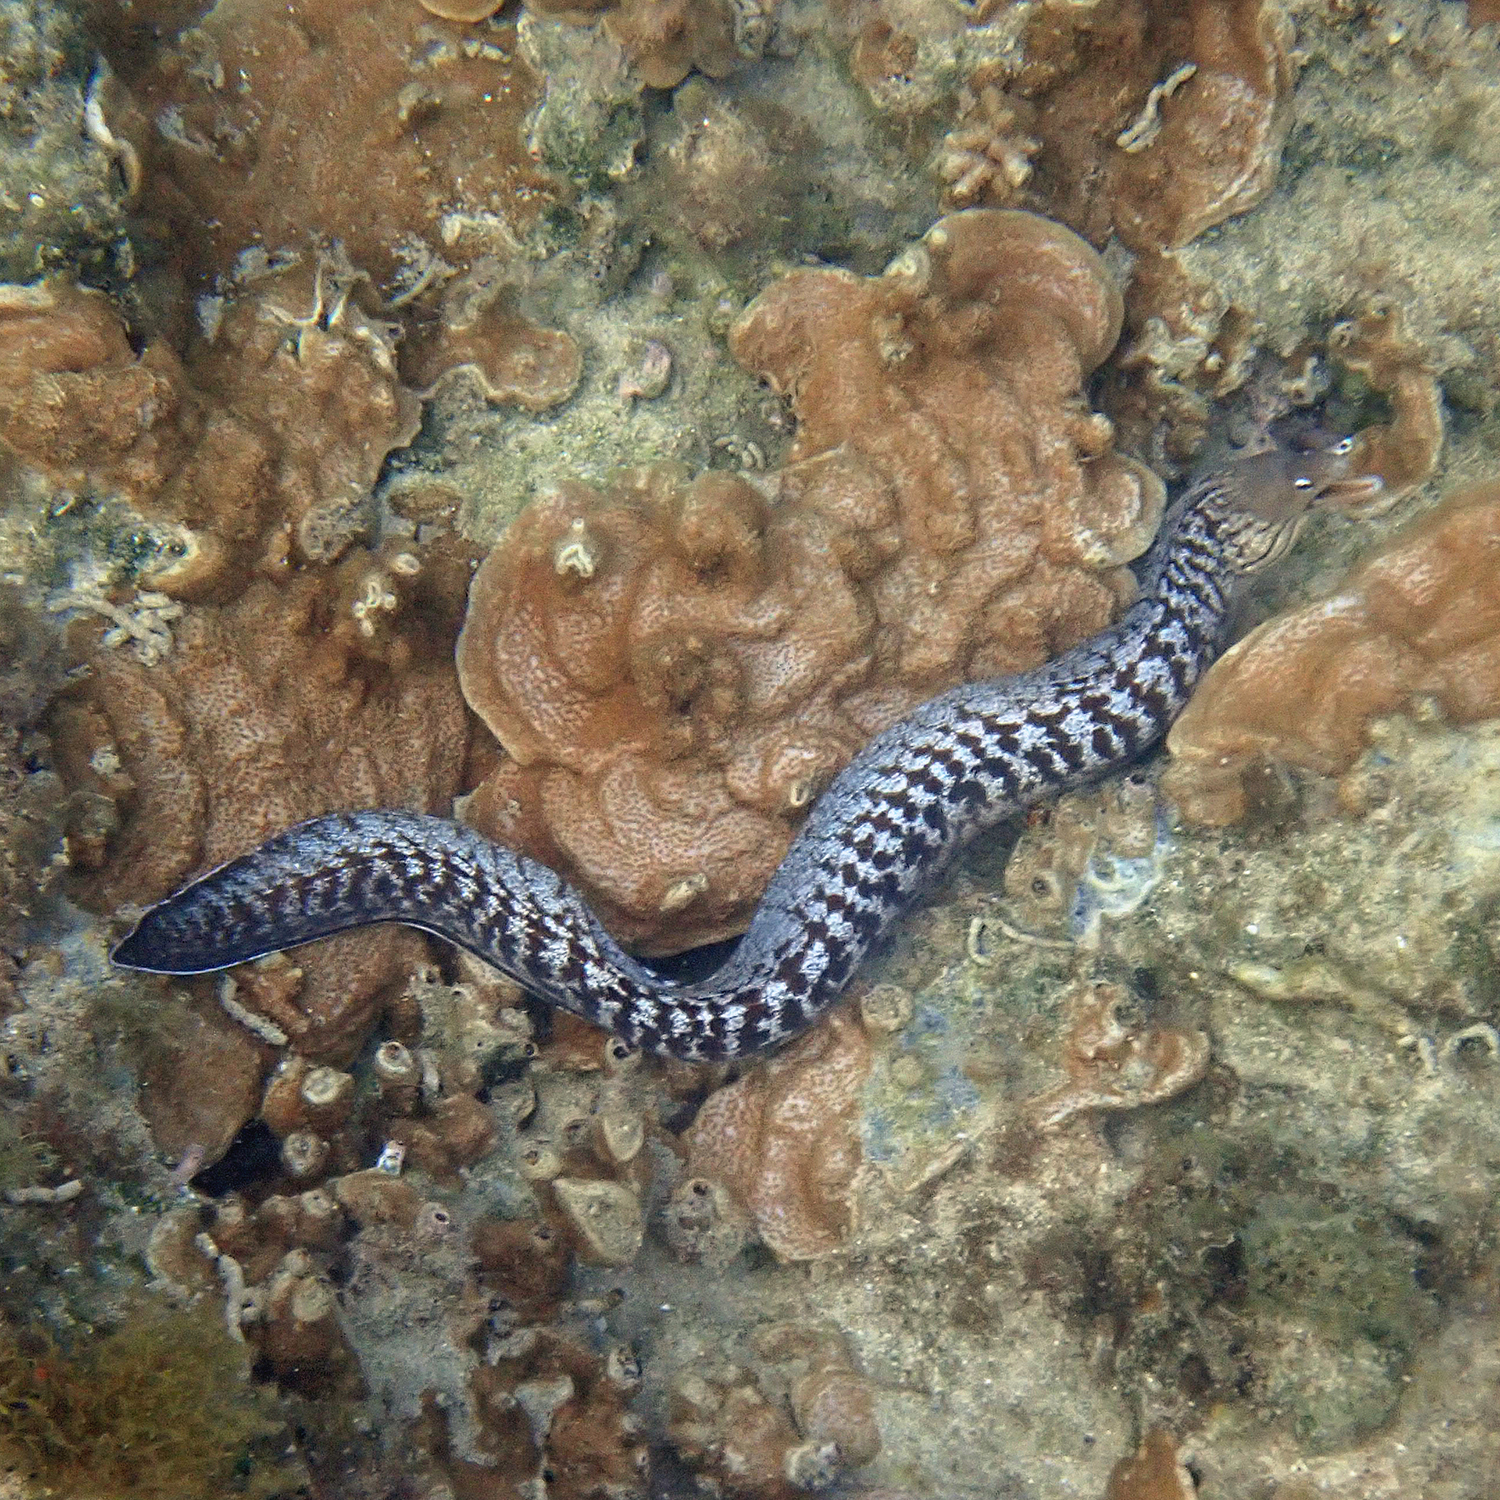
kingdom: Animalia
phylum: Chordata
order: Anguilliformes
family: Muraenidae
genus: Gymnothorax
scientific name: Gymnothorax nubilus
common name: Grey moray
